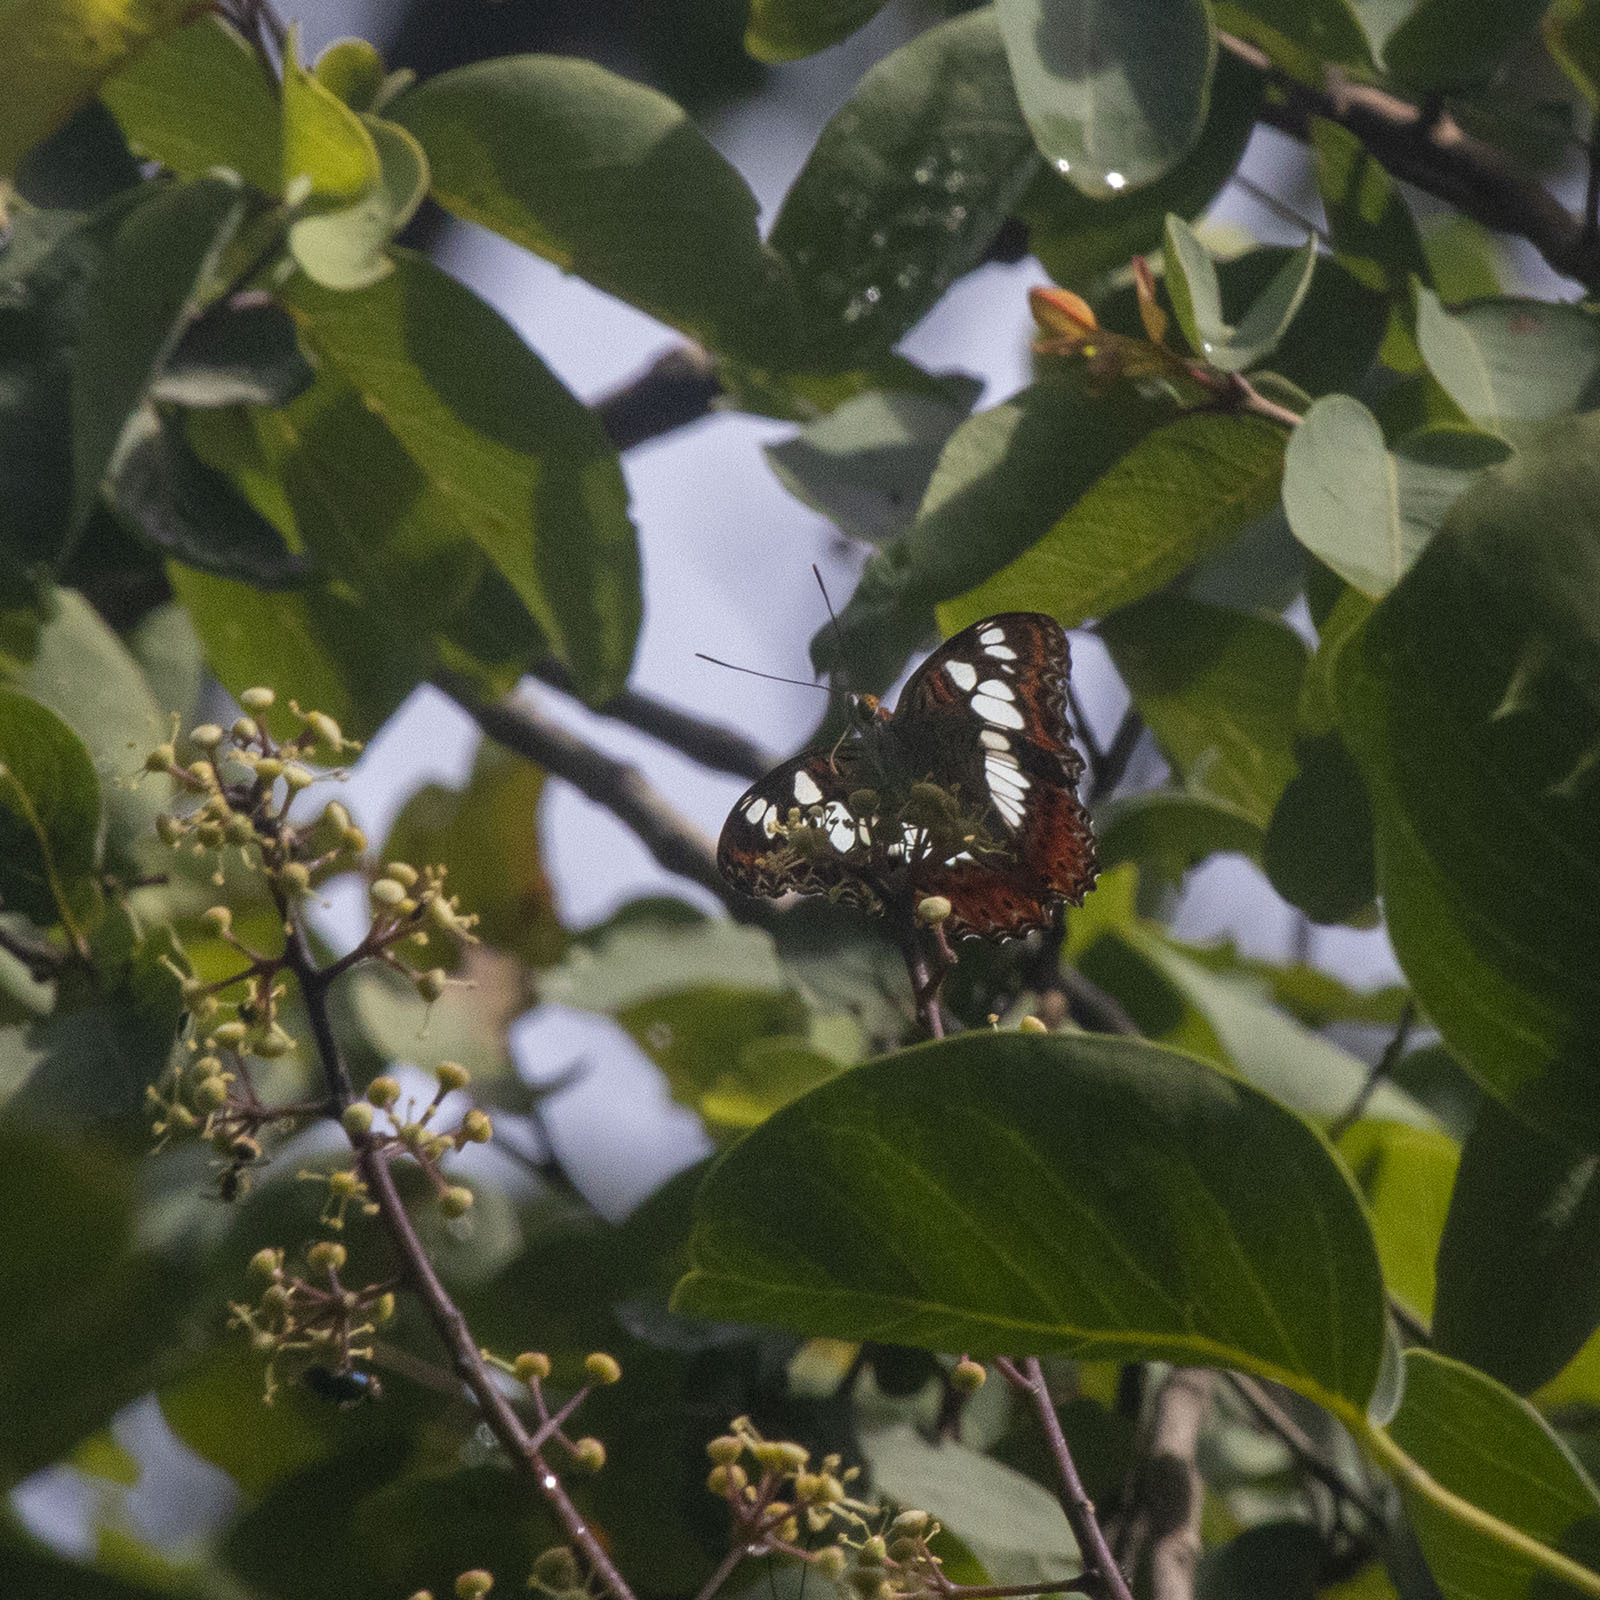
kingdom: Animalia
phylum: Arthropoda
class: Insecta
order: Lepidoptera
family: Nymphalidae
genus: Limenitis
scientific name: Limenitis Moduza procris
